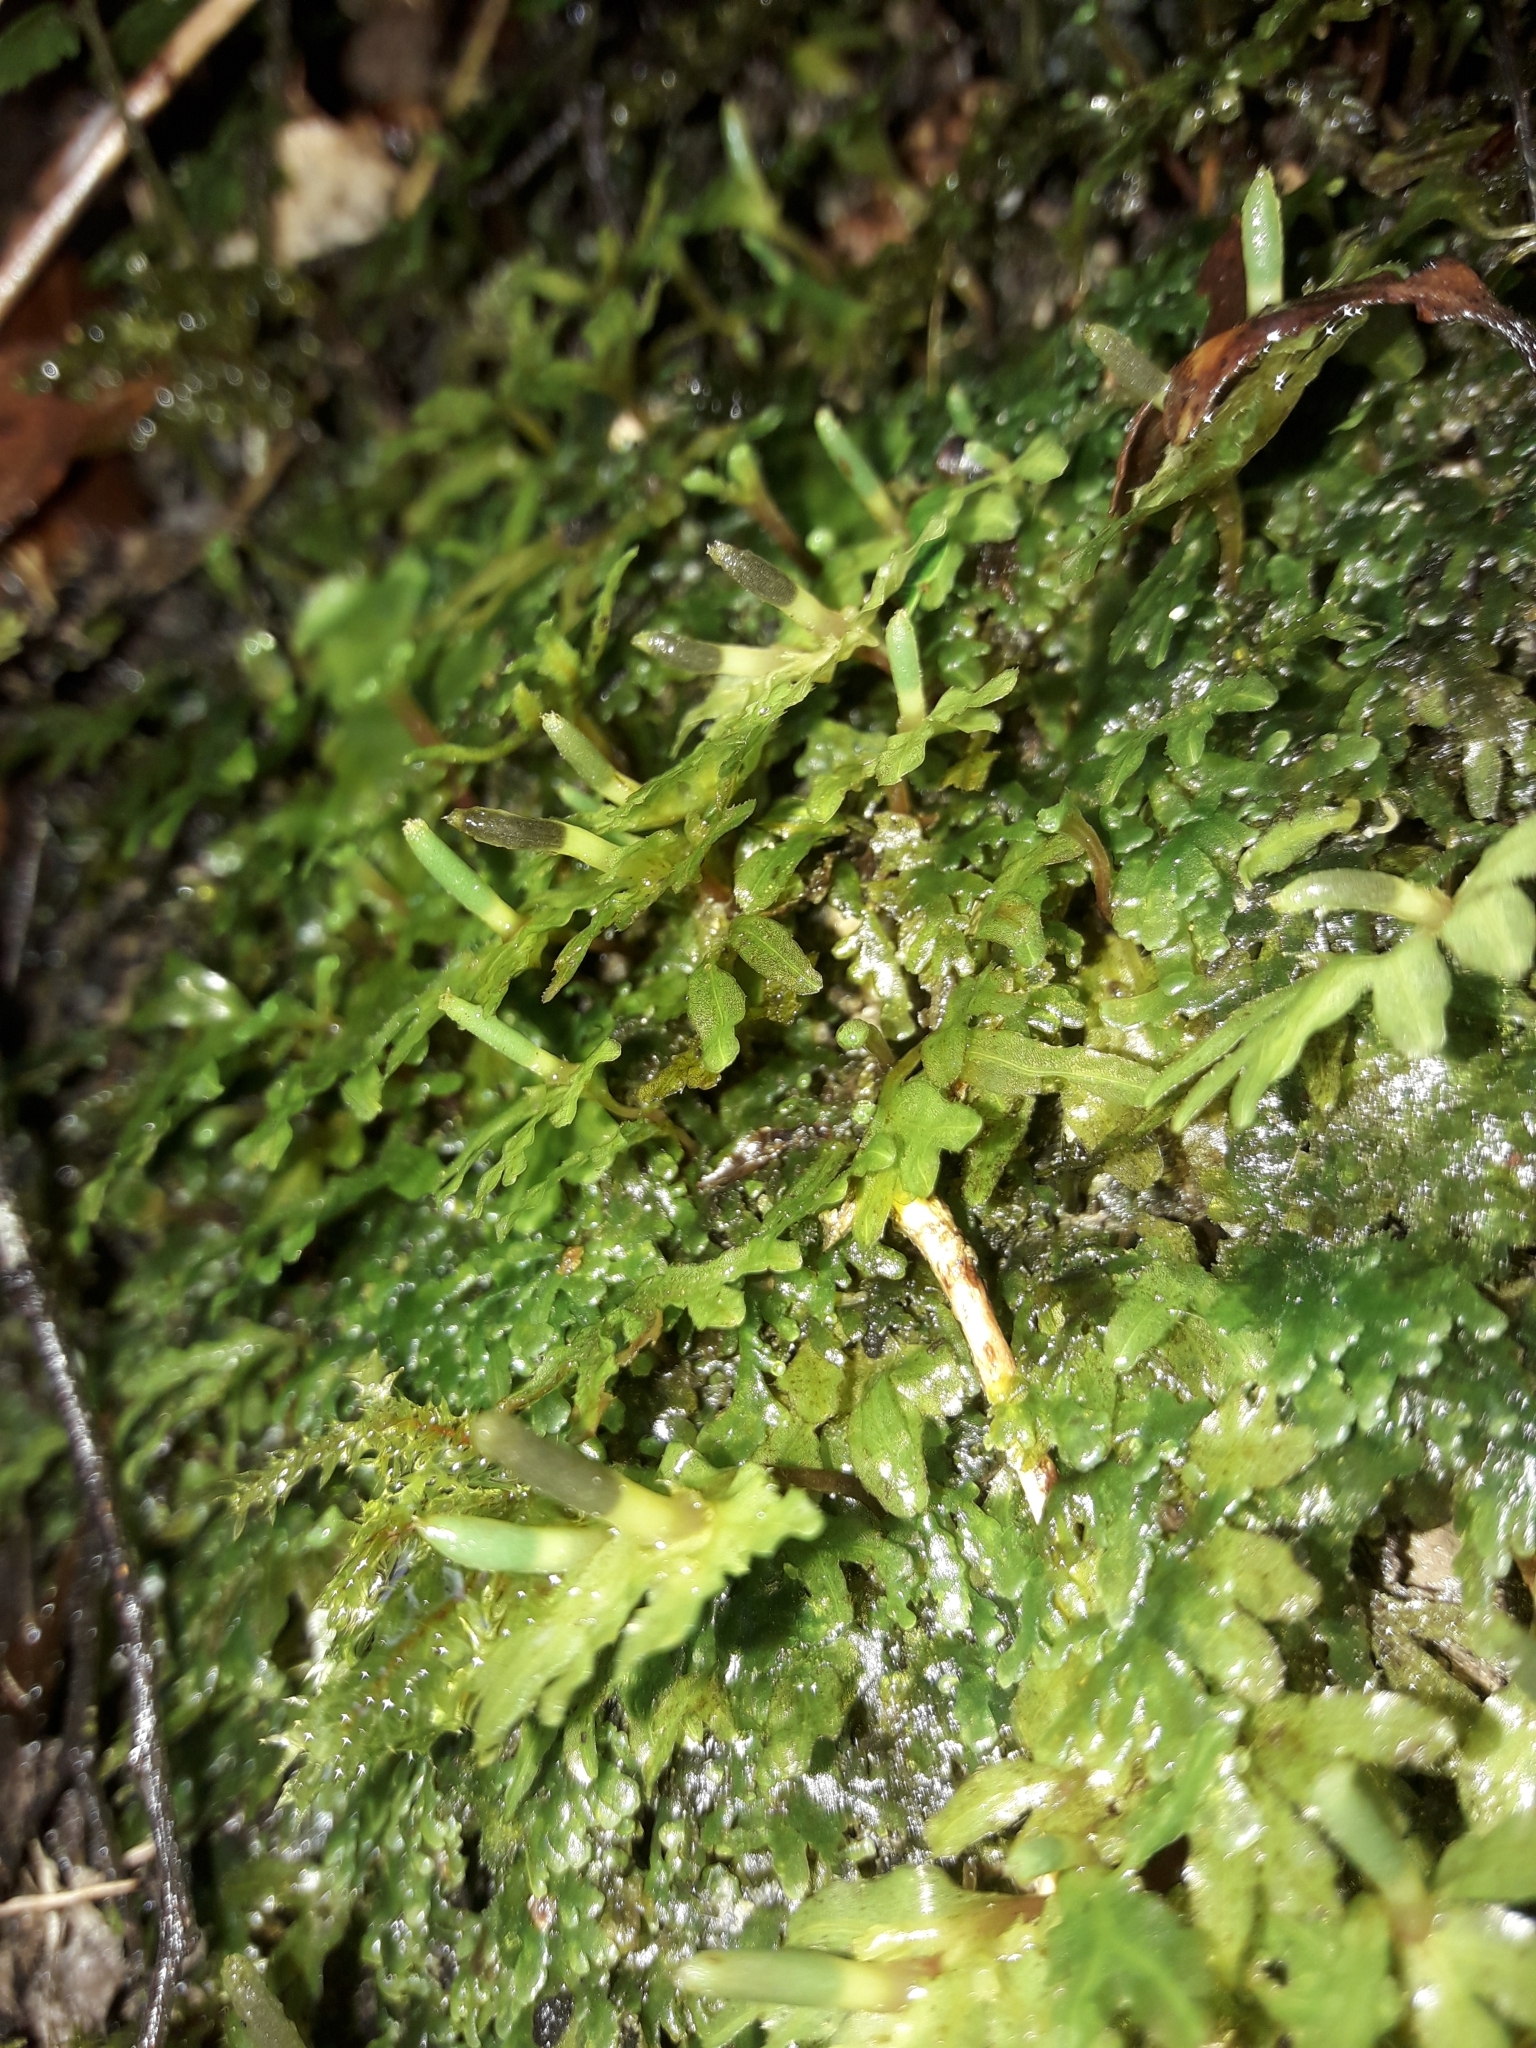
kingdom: Plantae
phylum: Marchantiophyta
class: Jungermanniopsida
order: Pallaviciniales
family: Pallaviciniaceae
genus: Symphyogyna
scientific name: Symphyogyna hymenophyllum
